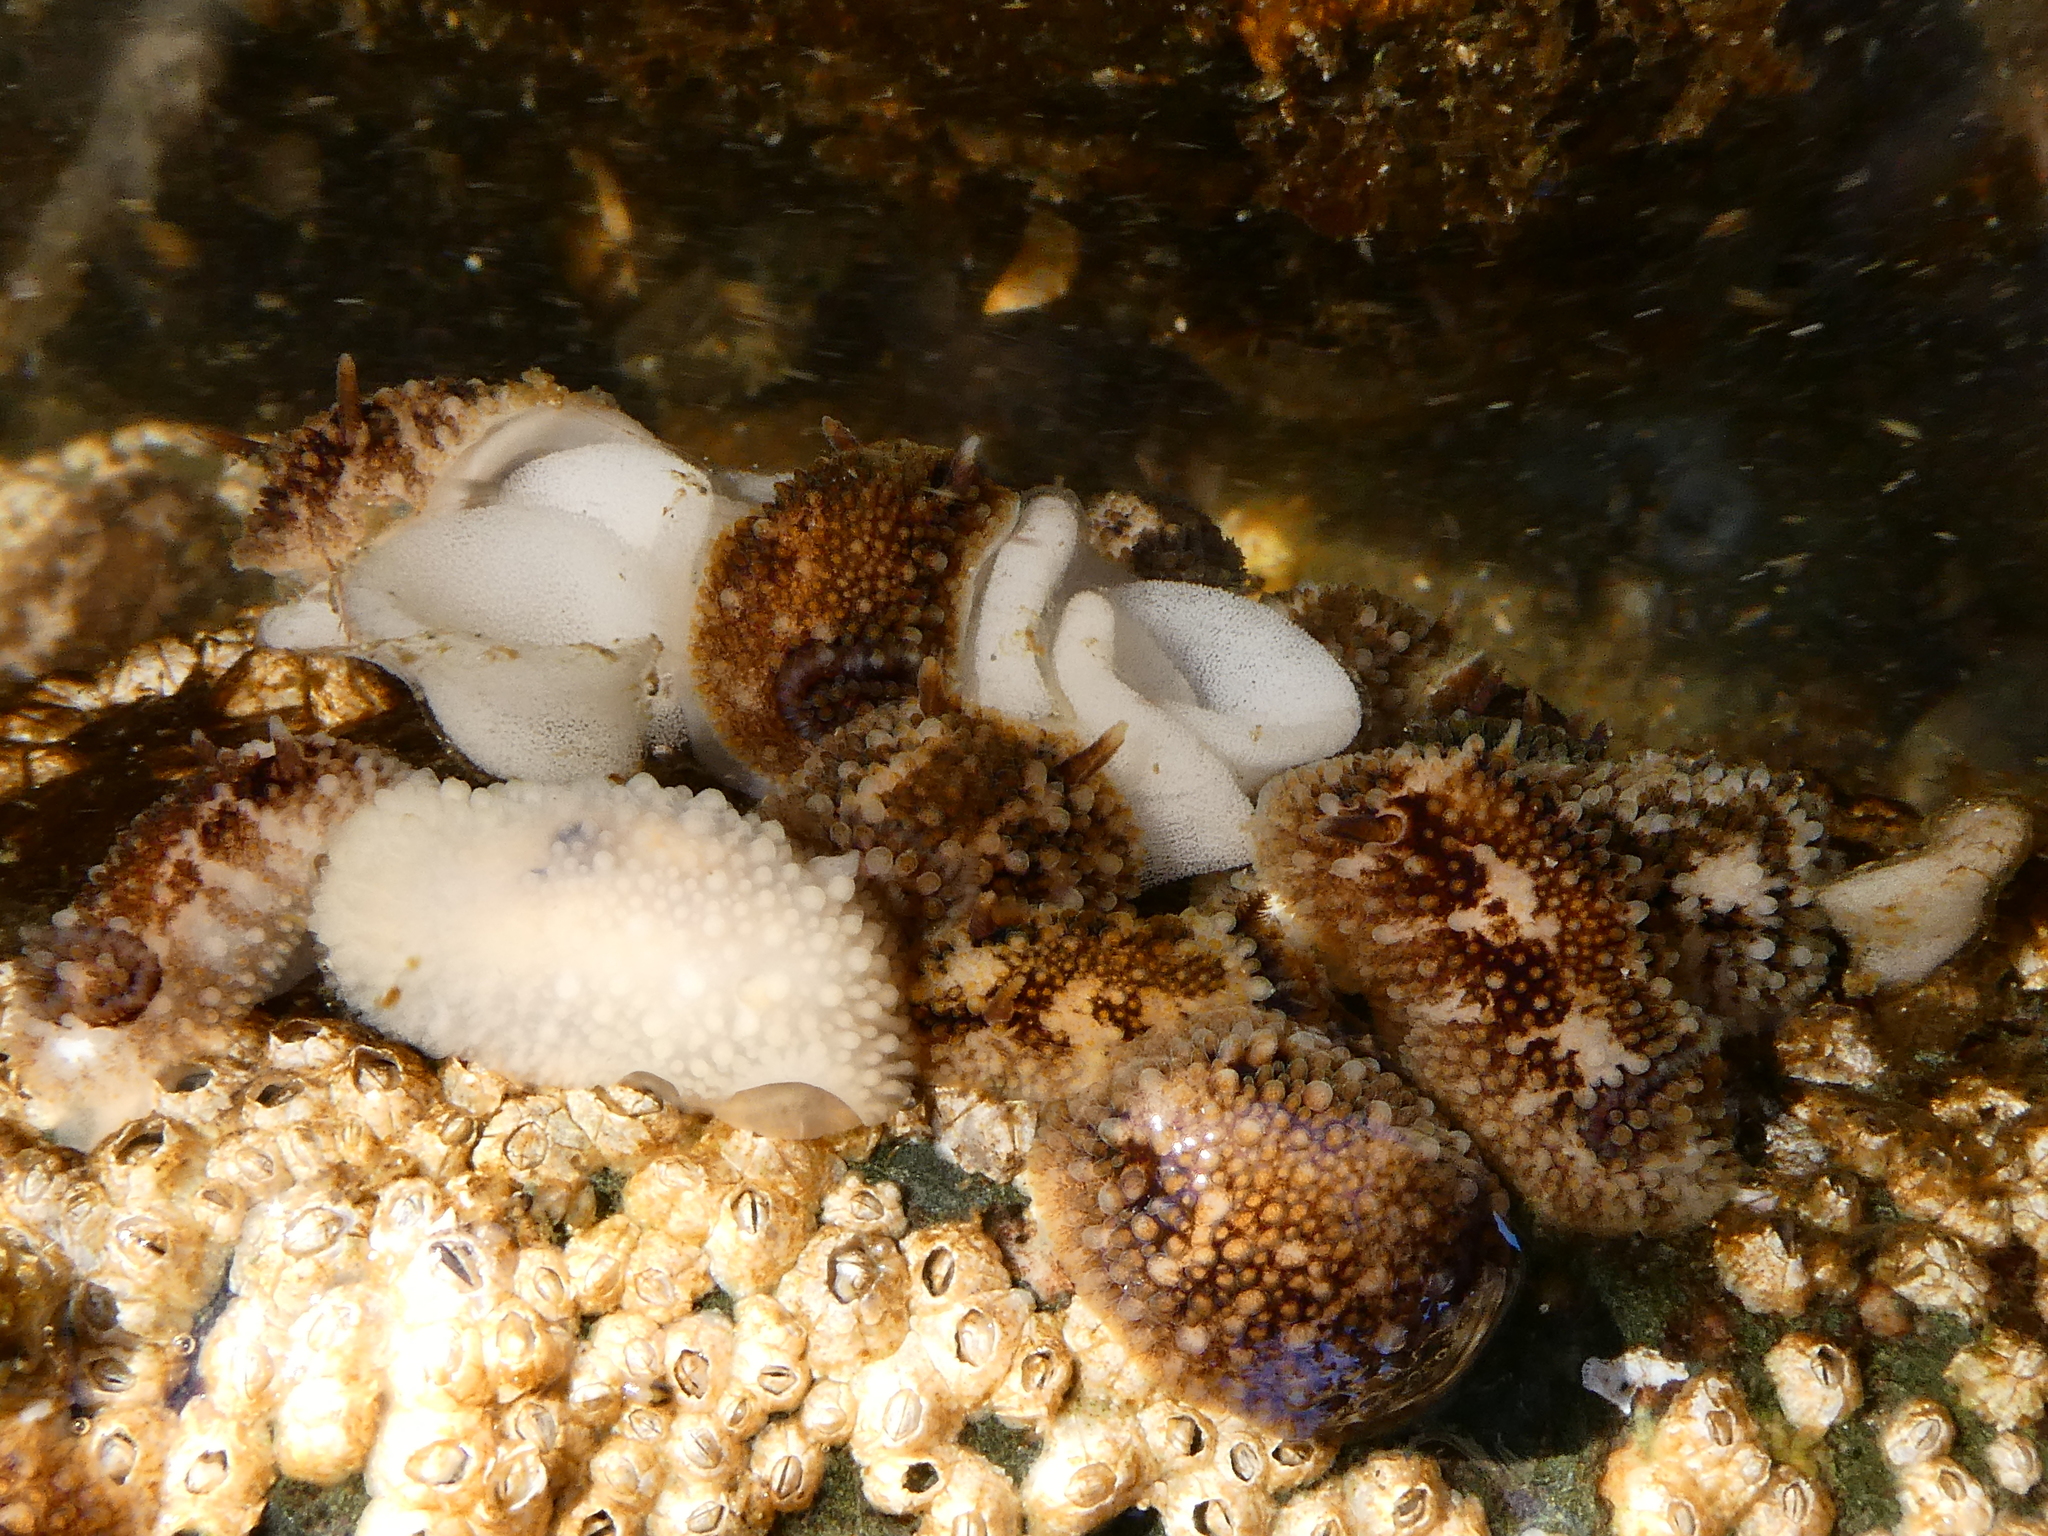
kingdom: Animalia
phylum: Mollusca
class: Gastropoda
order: Nudibranchia
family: Onchidorididae
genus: Onchidoris
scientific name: Onchidoris bilamellata
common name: Barnacle-eating onchidoris
